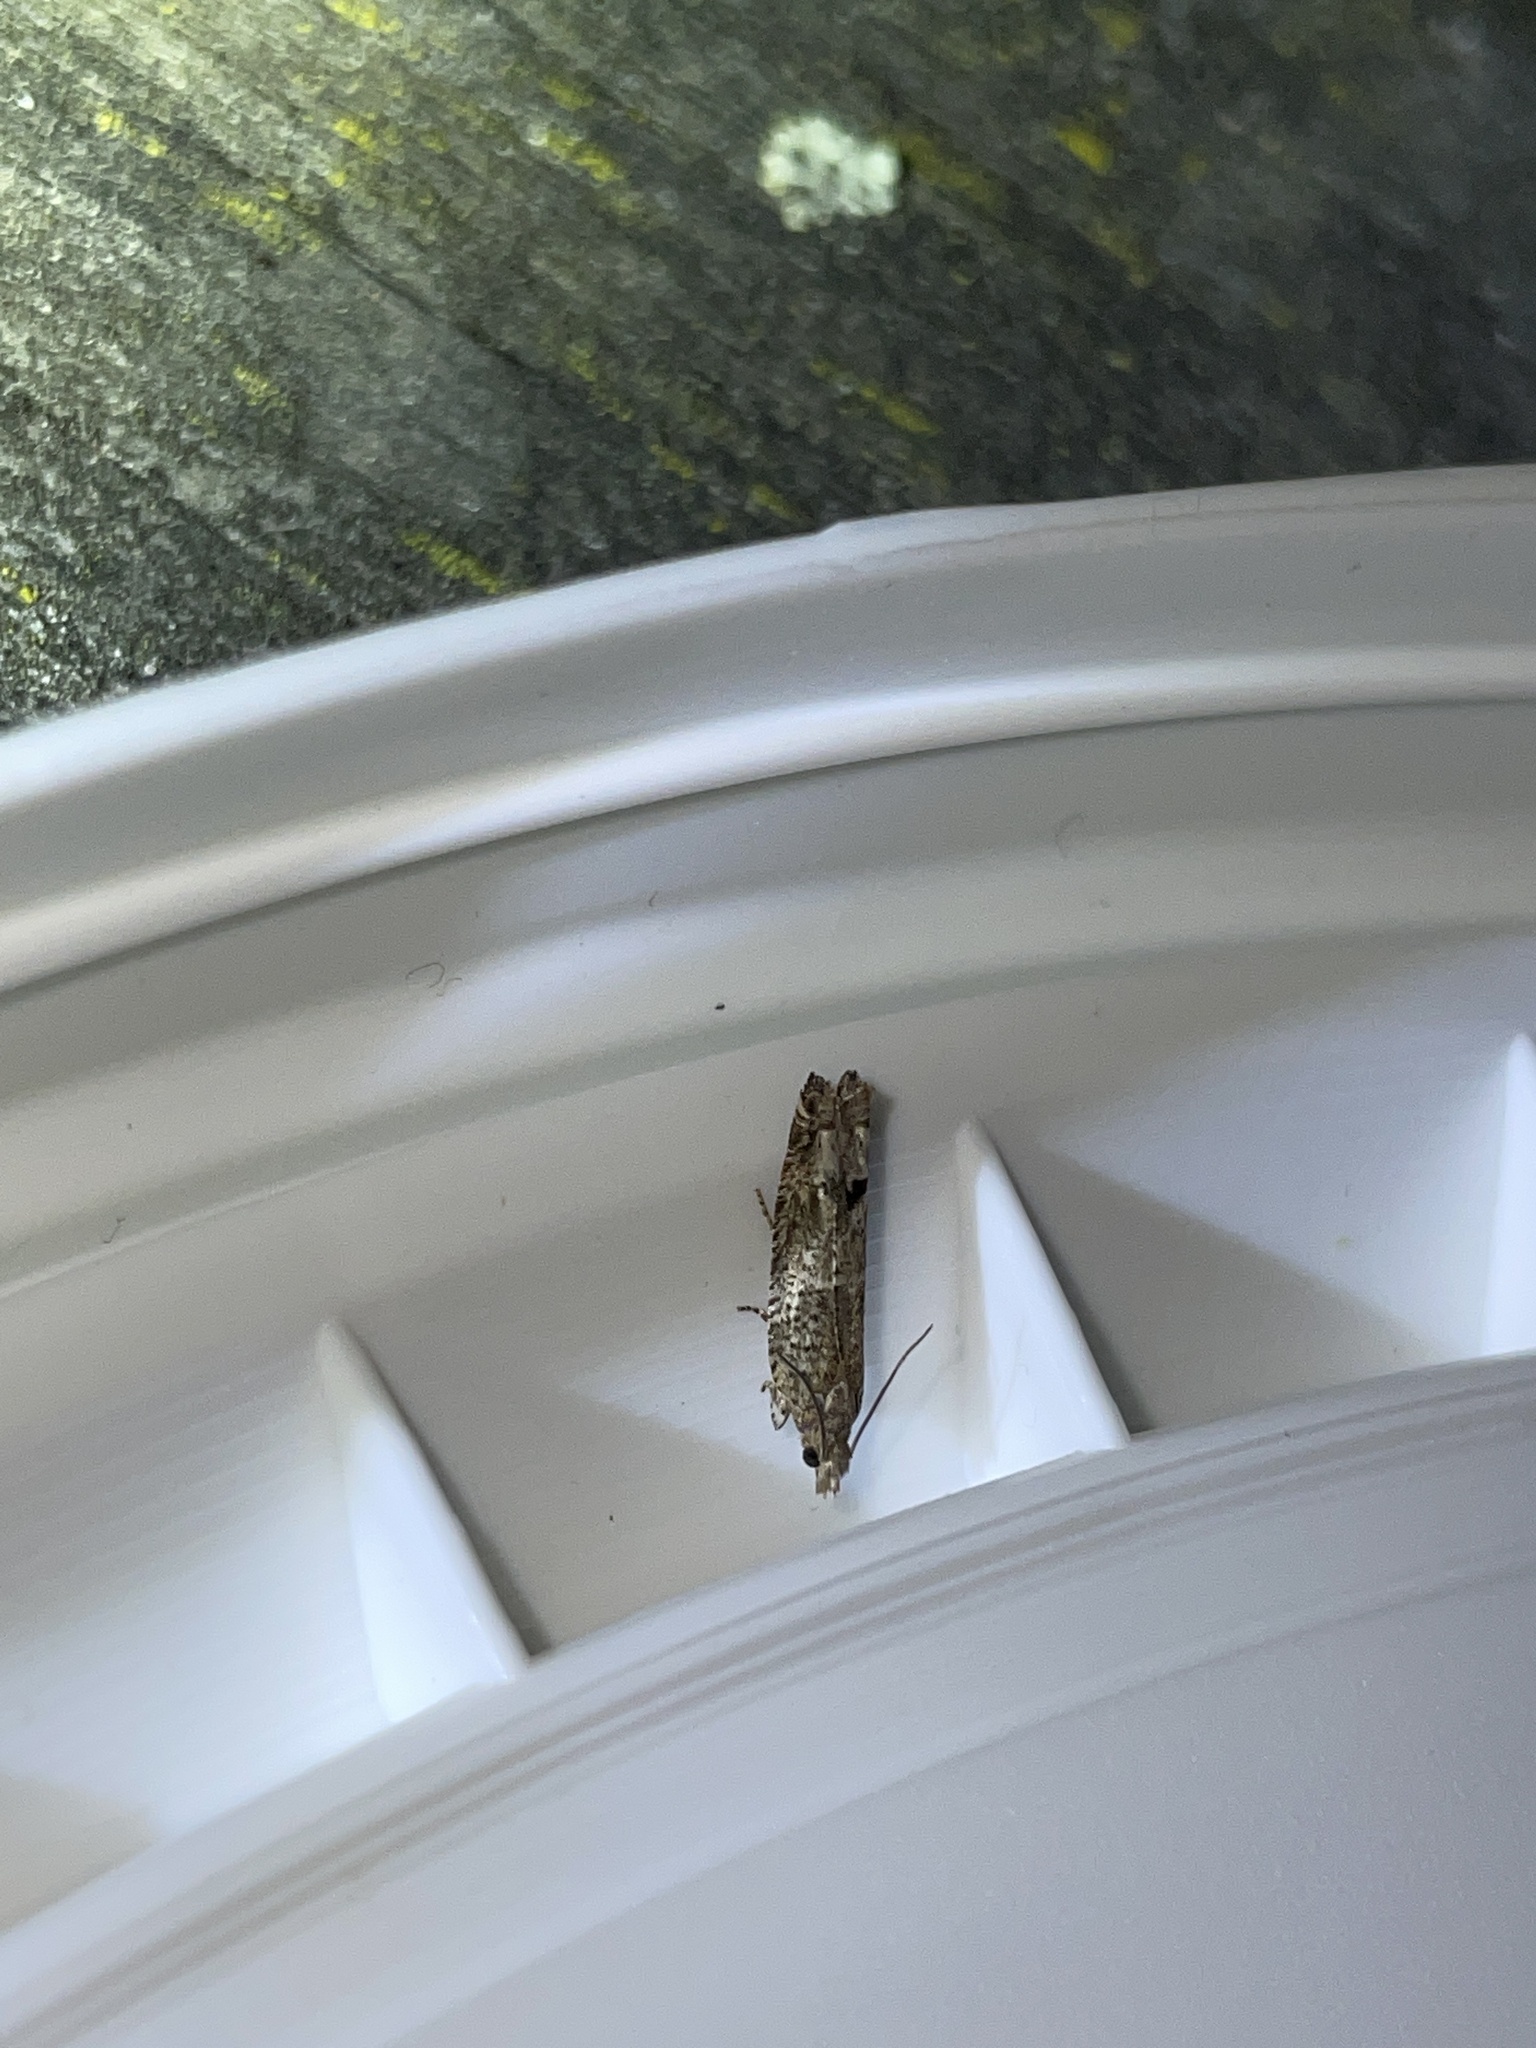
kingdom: Animalia
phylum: Arthropoda
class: Insecta
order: Lepidoptera
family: Tortricidae
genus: Crocidosema
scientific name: Crocidosema plebejana
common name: Southern bell
